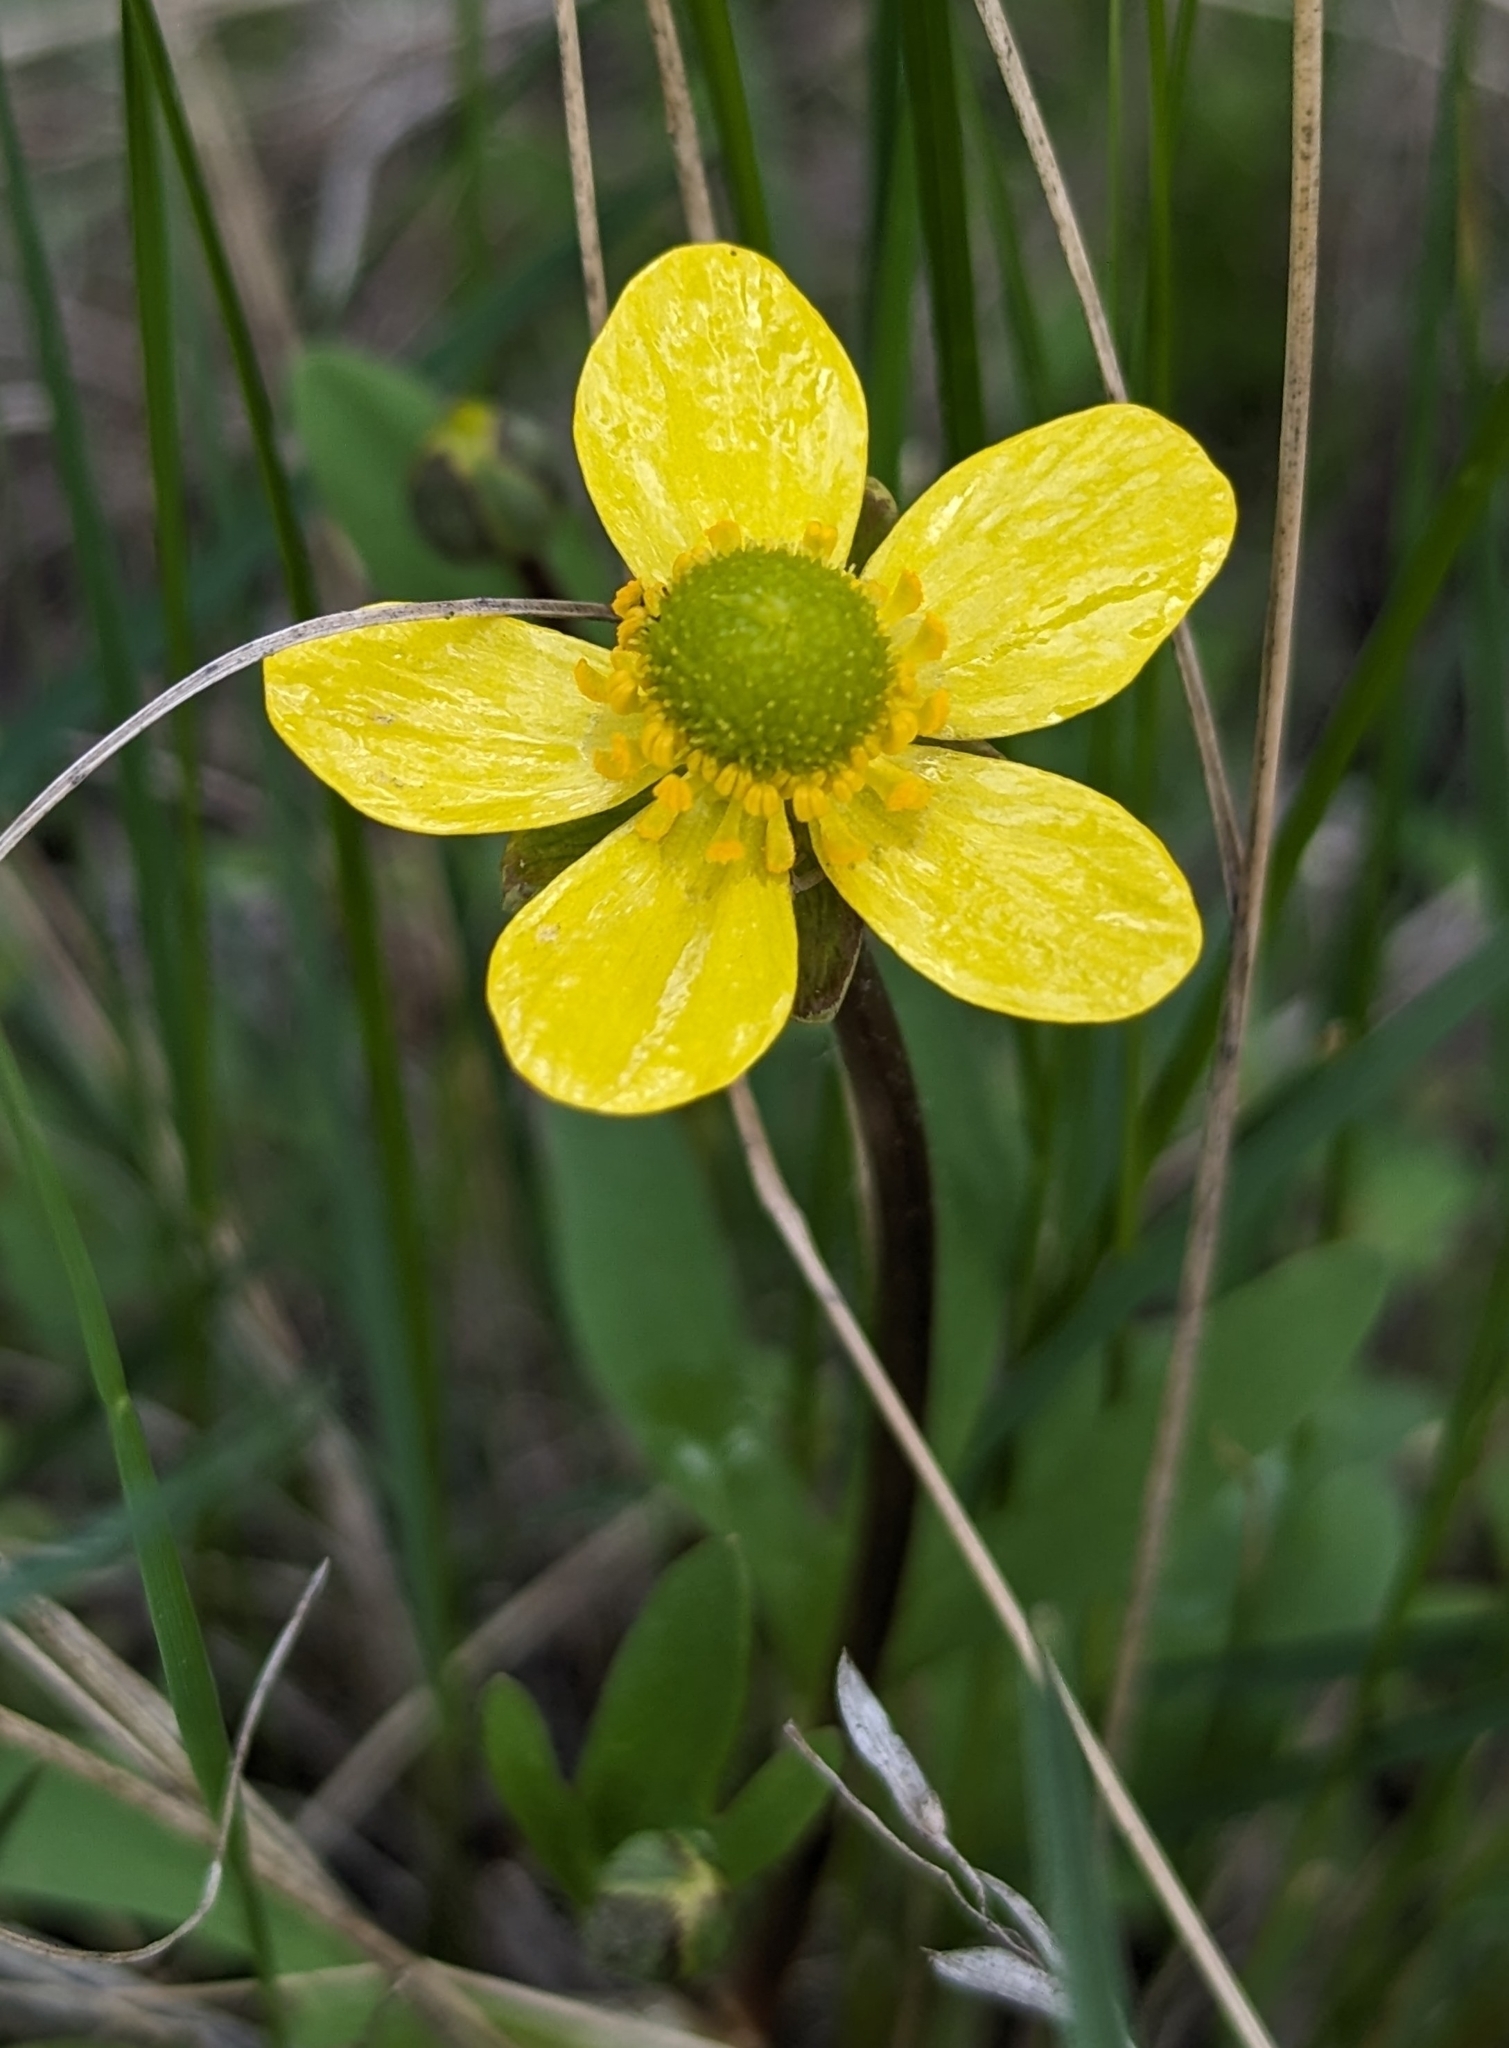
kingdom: Plantae
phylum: Tracheophyta
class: Magnoliopsida
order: Ranunculales
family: Ranunculaceae
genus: Ranunculus
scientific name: Ranunculus glaberrimus
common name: Sagebrush buttercup
